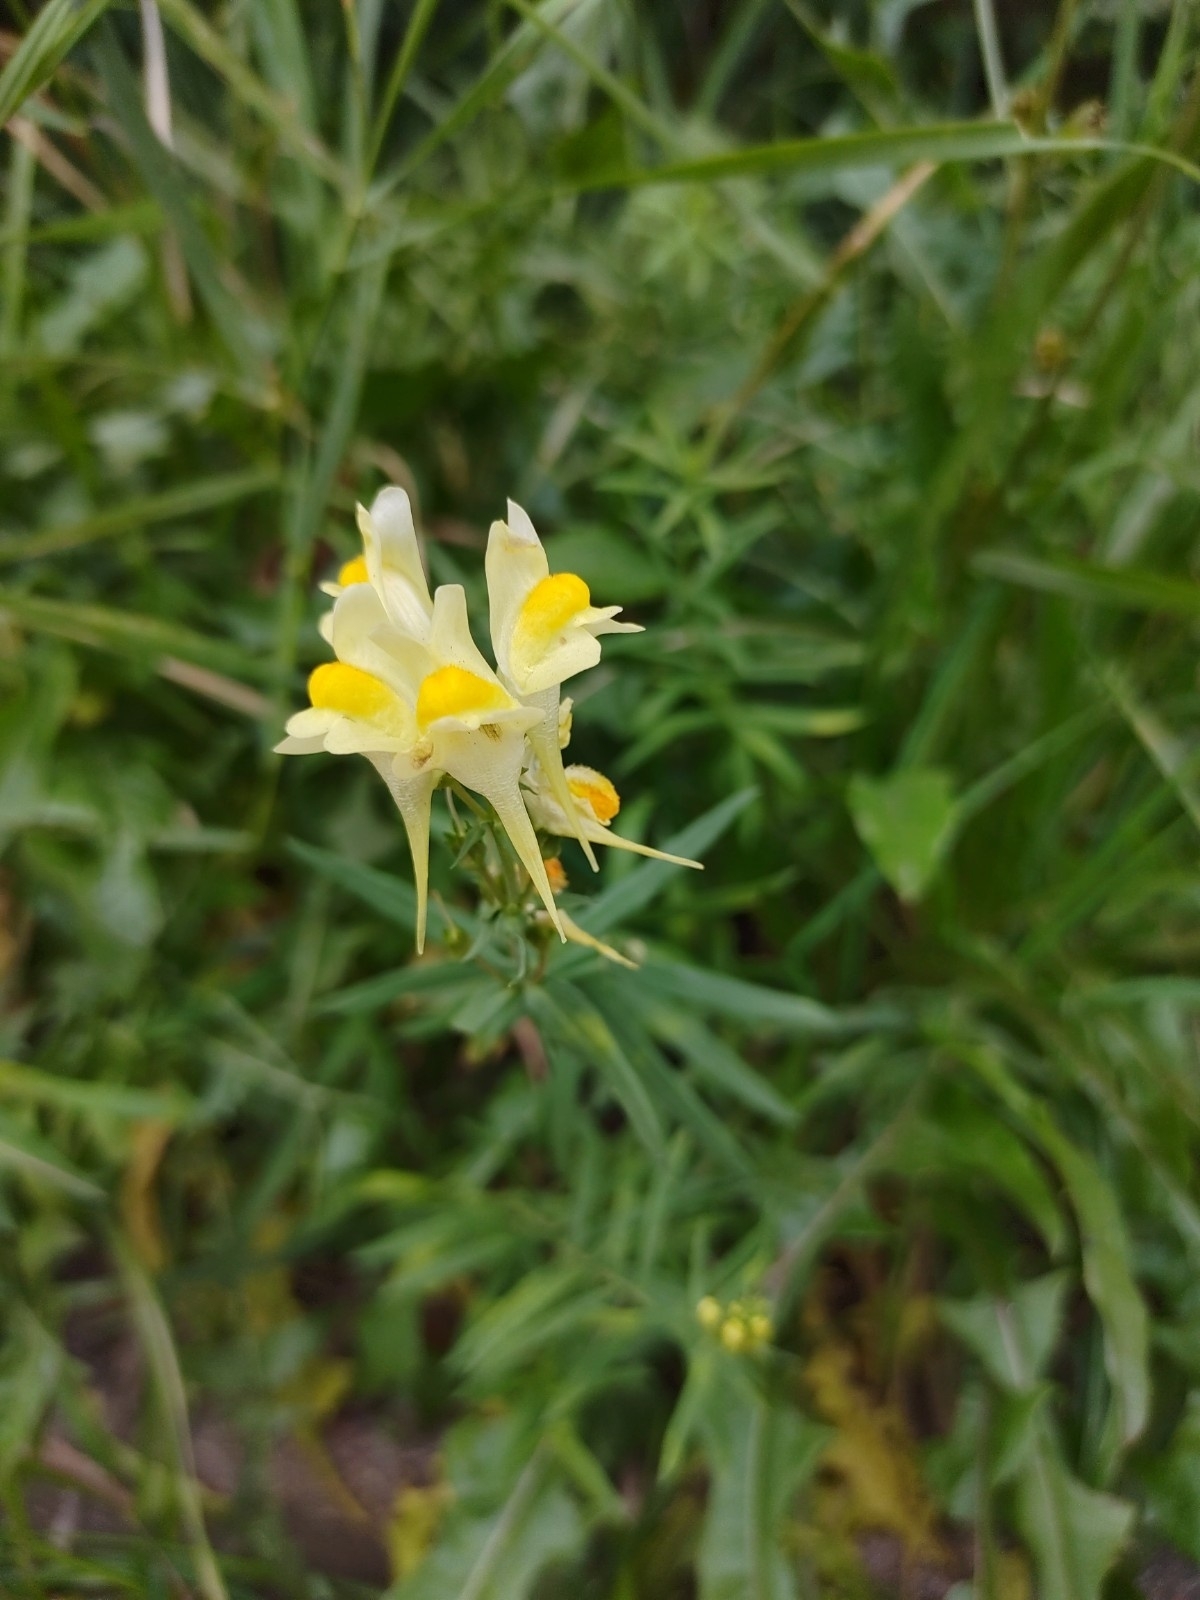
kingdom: Plantae
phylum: Tracheophyta
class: Magnoliopsida
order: Lamiales
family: Plantaginaceae
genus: Linaria
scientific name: Linaria vulgaris
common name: Butter and eggs
